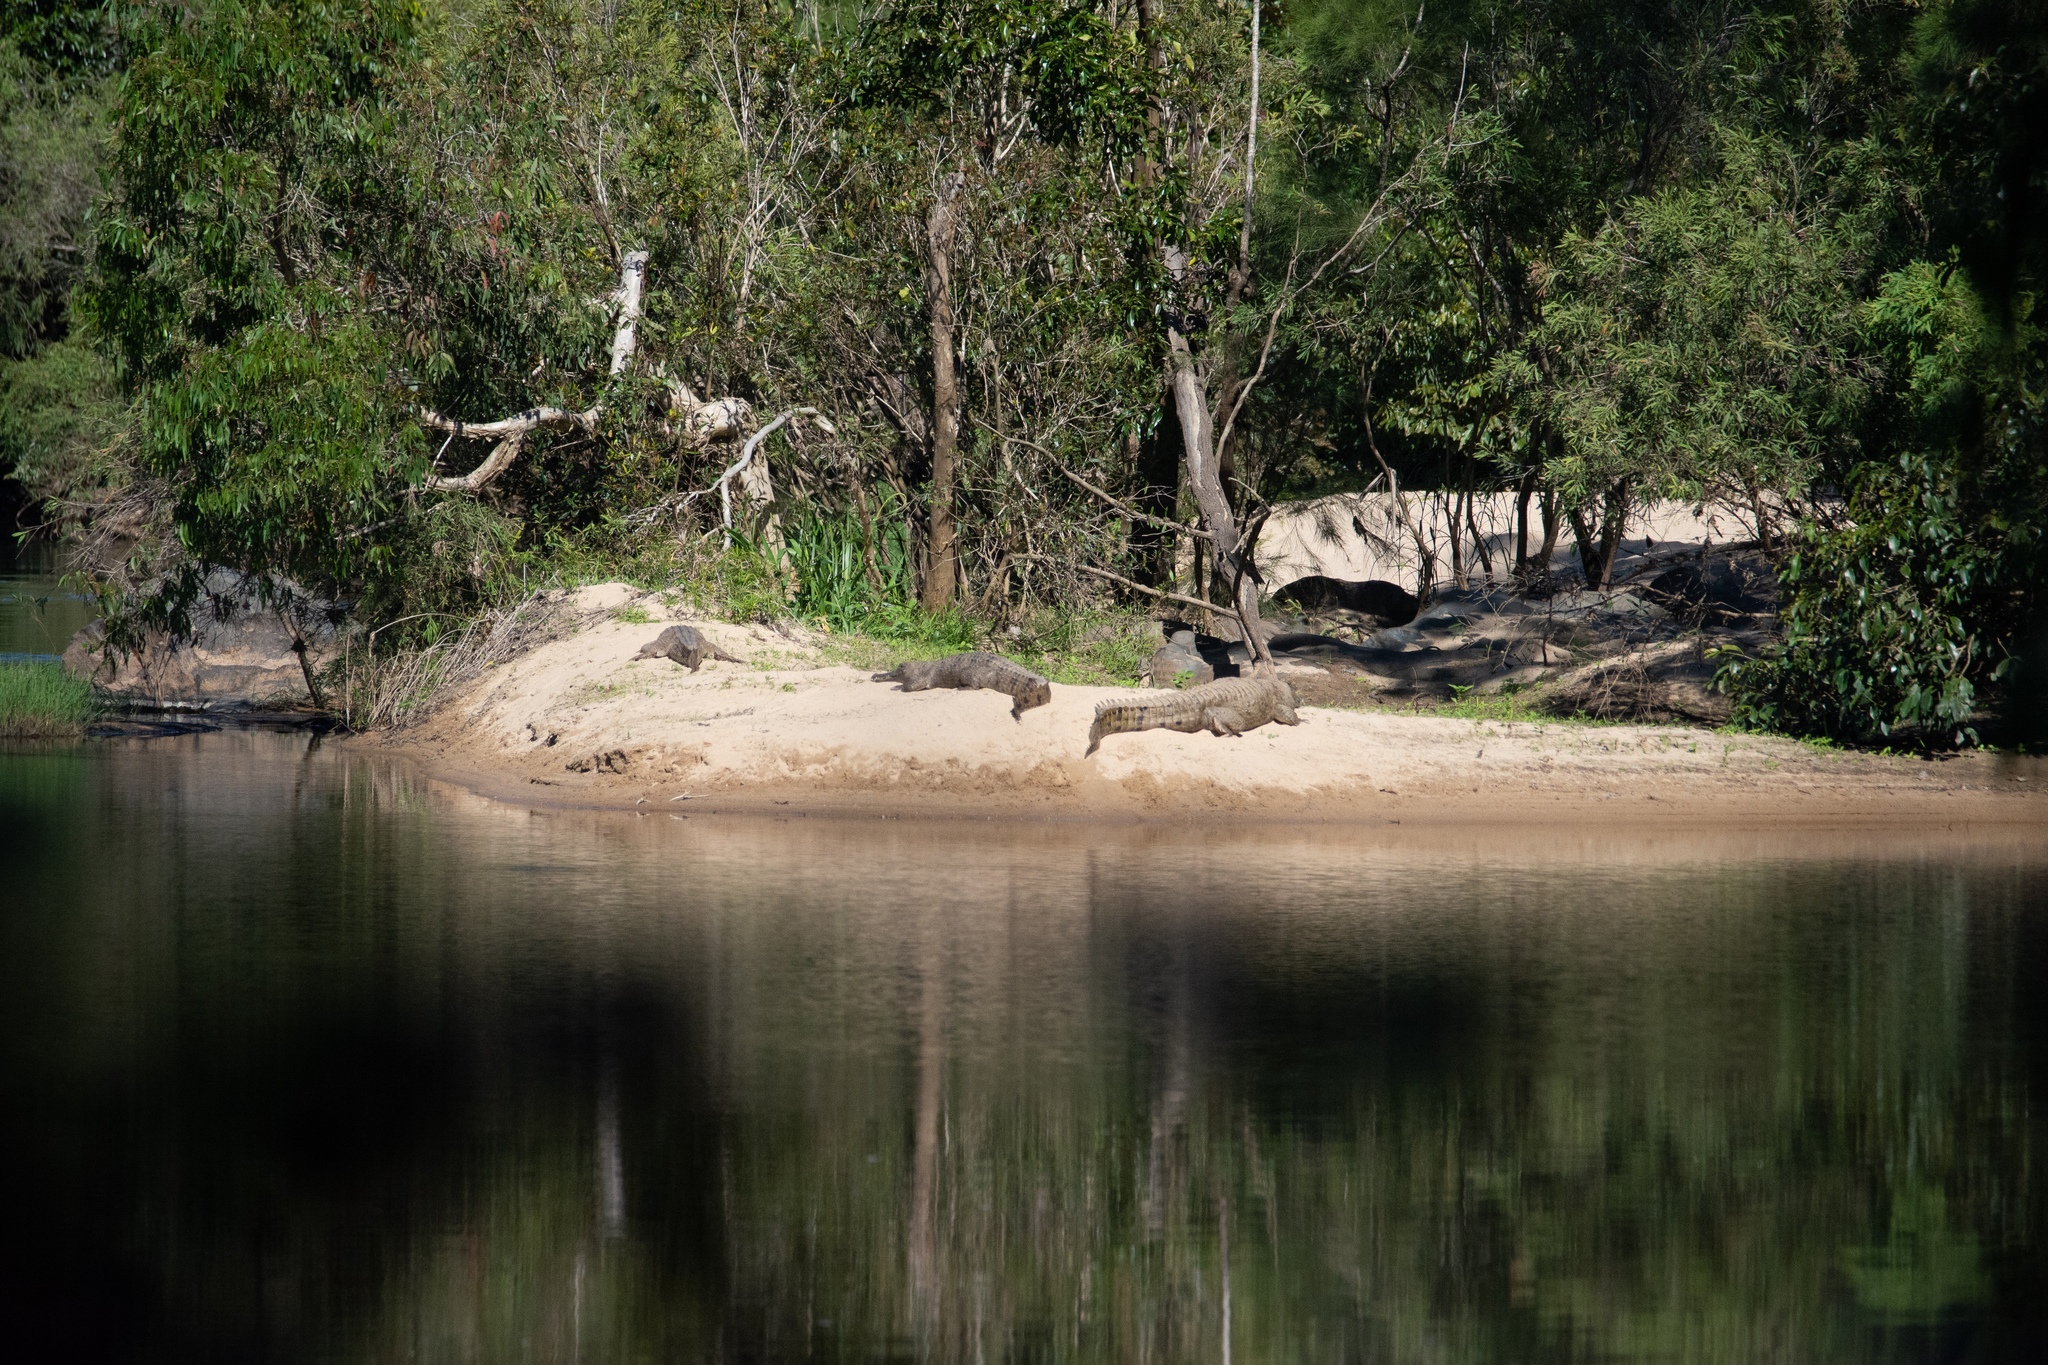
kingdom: Animalia
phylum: Chordata
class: Crocodylia
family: Crocodylidae
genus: Crocodylus
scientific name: Crocodylus johnsoni
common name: Freshwater crocodile
